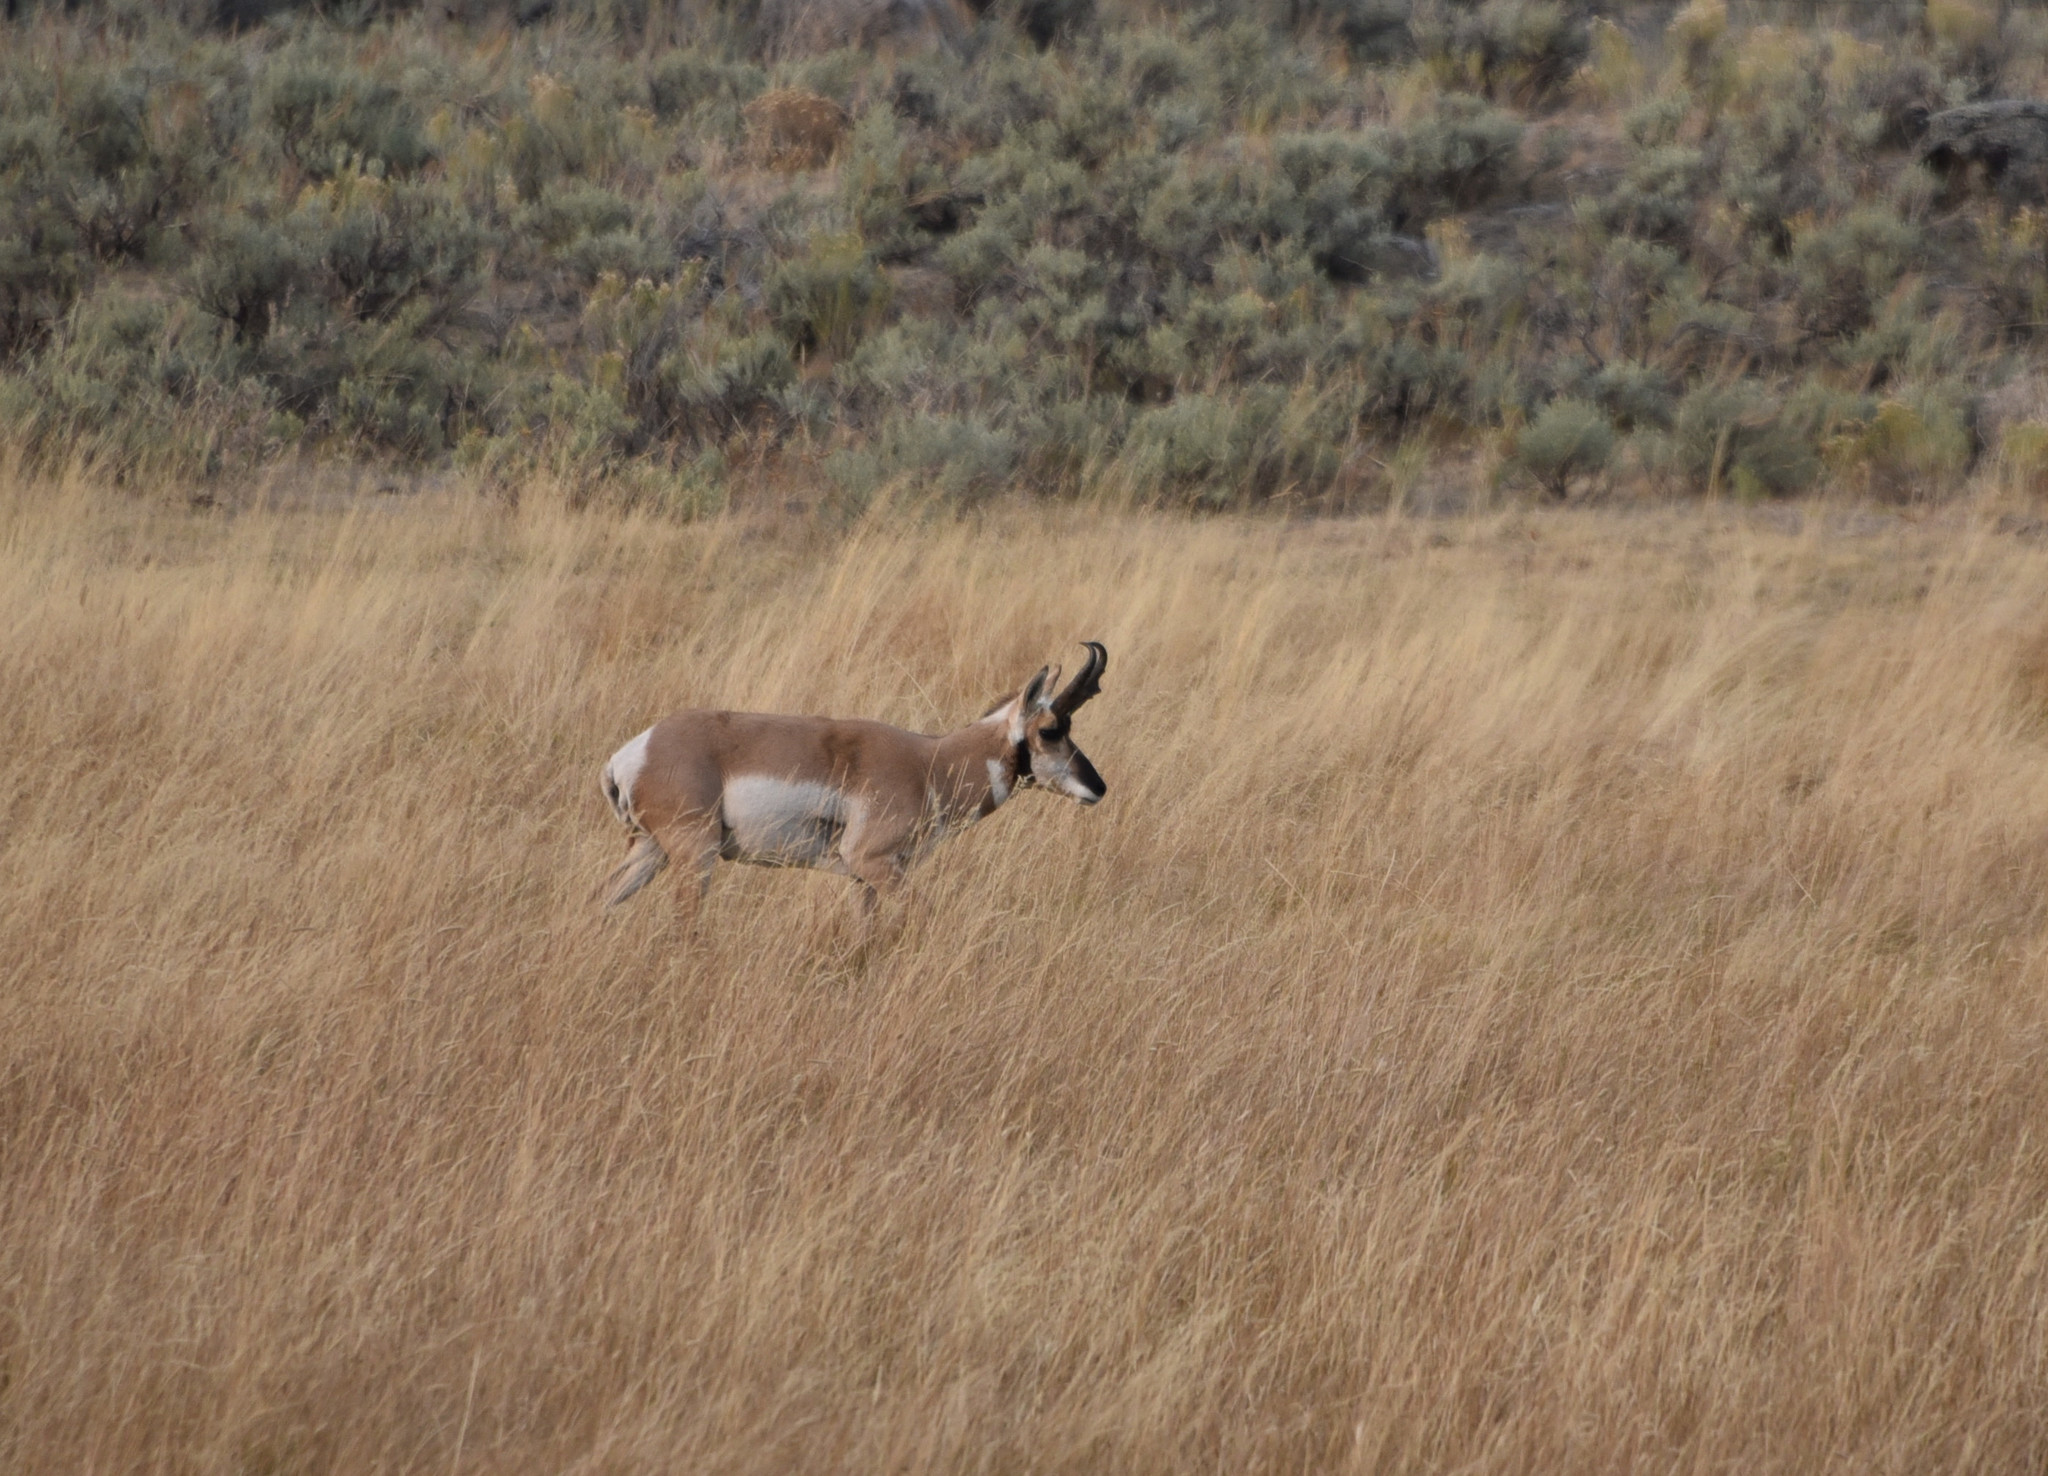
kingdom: Animalia
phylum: Chordata
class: Mammalia
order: Artiodactyla
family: Antilocapridae
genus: Antilocapra
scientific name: Antilocapra americana
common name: Pronghorn
